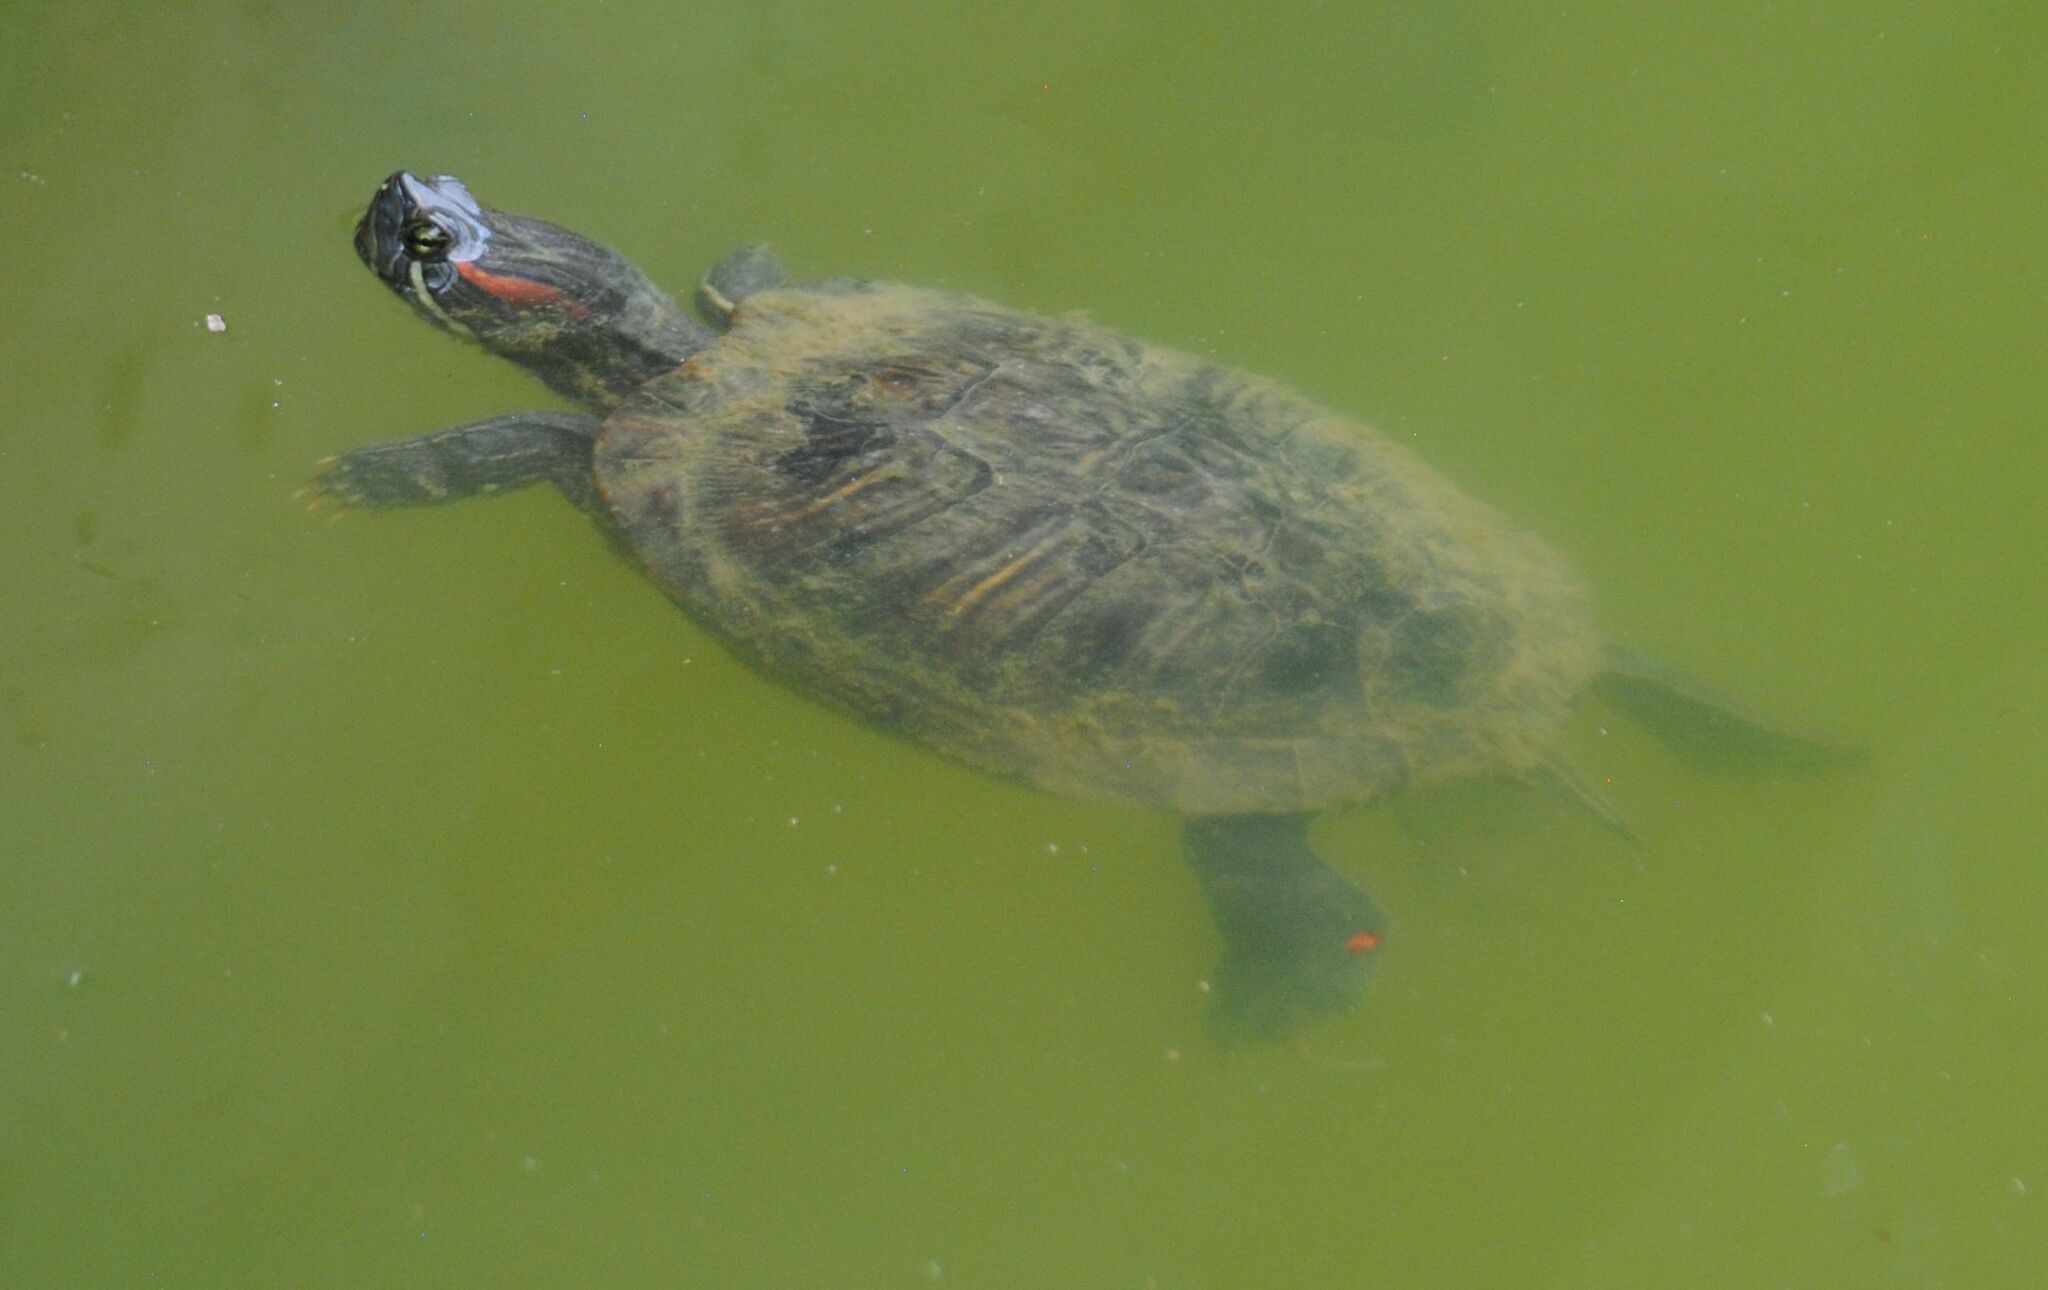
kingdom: Animalia
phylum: Chordata
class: Testudines
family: Emydidae
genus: Trachemys
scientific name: Trachemys scripta
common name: Slider
